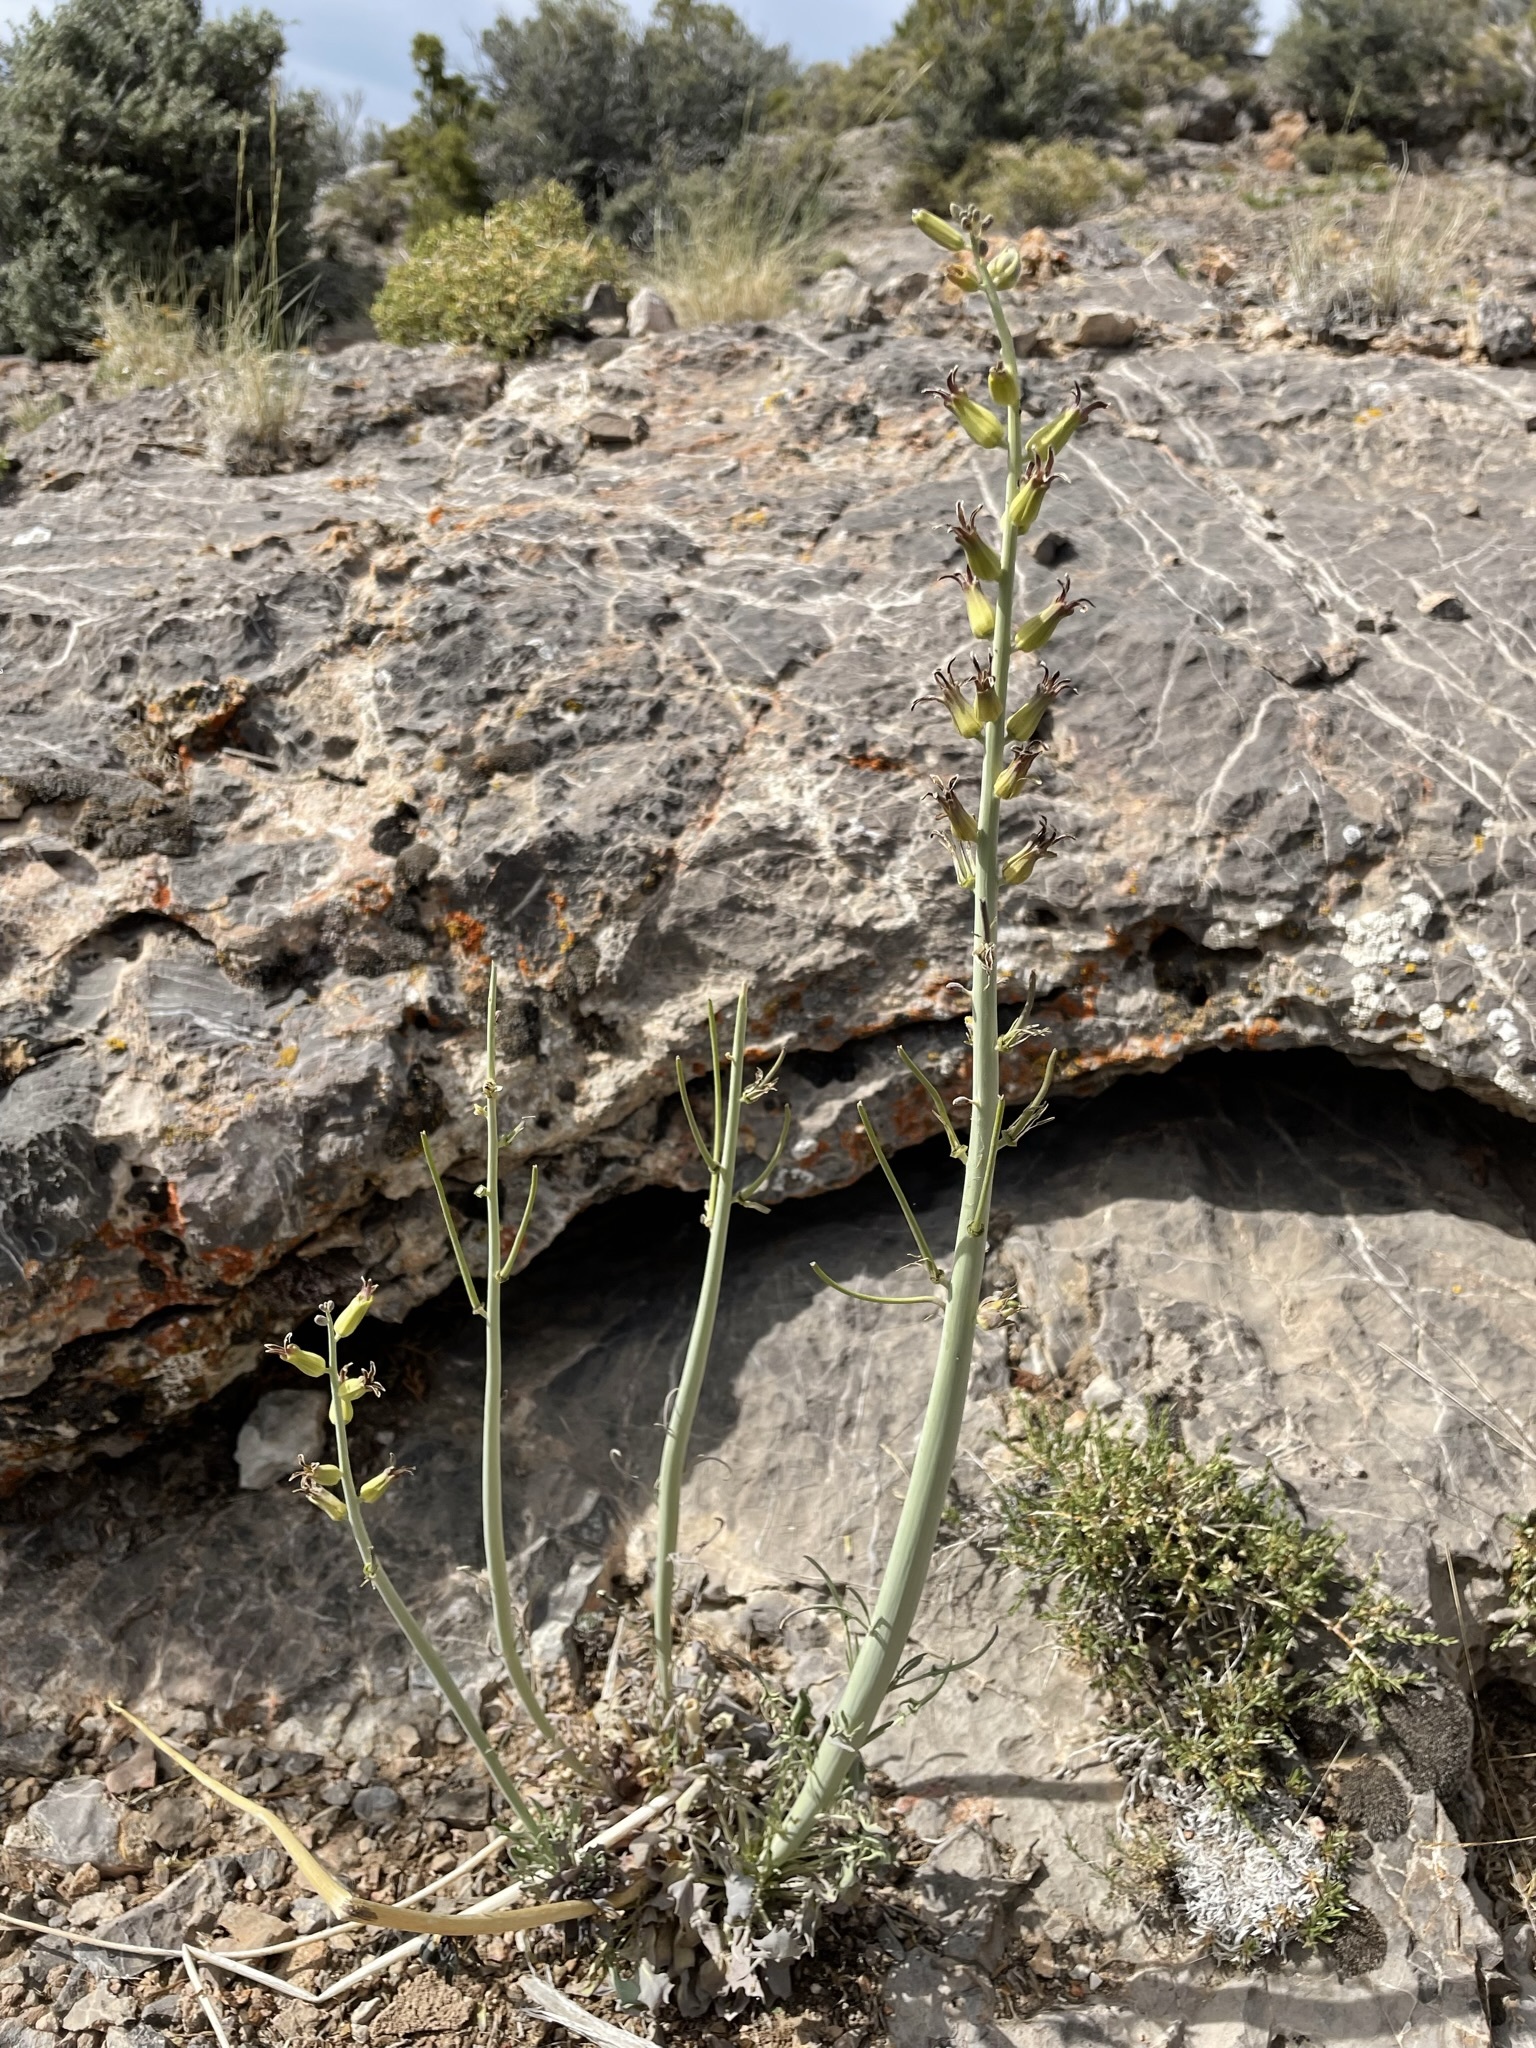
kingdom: Plantae
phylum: Tracheophyta
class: Magnoliopsida
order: Brassicales
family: Brassicaceae
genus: Streptanthus
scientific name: Streptanthus crassicaulis
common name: Thick-stem wild cabbage
